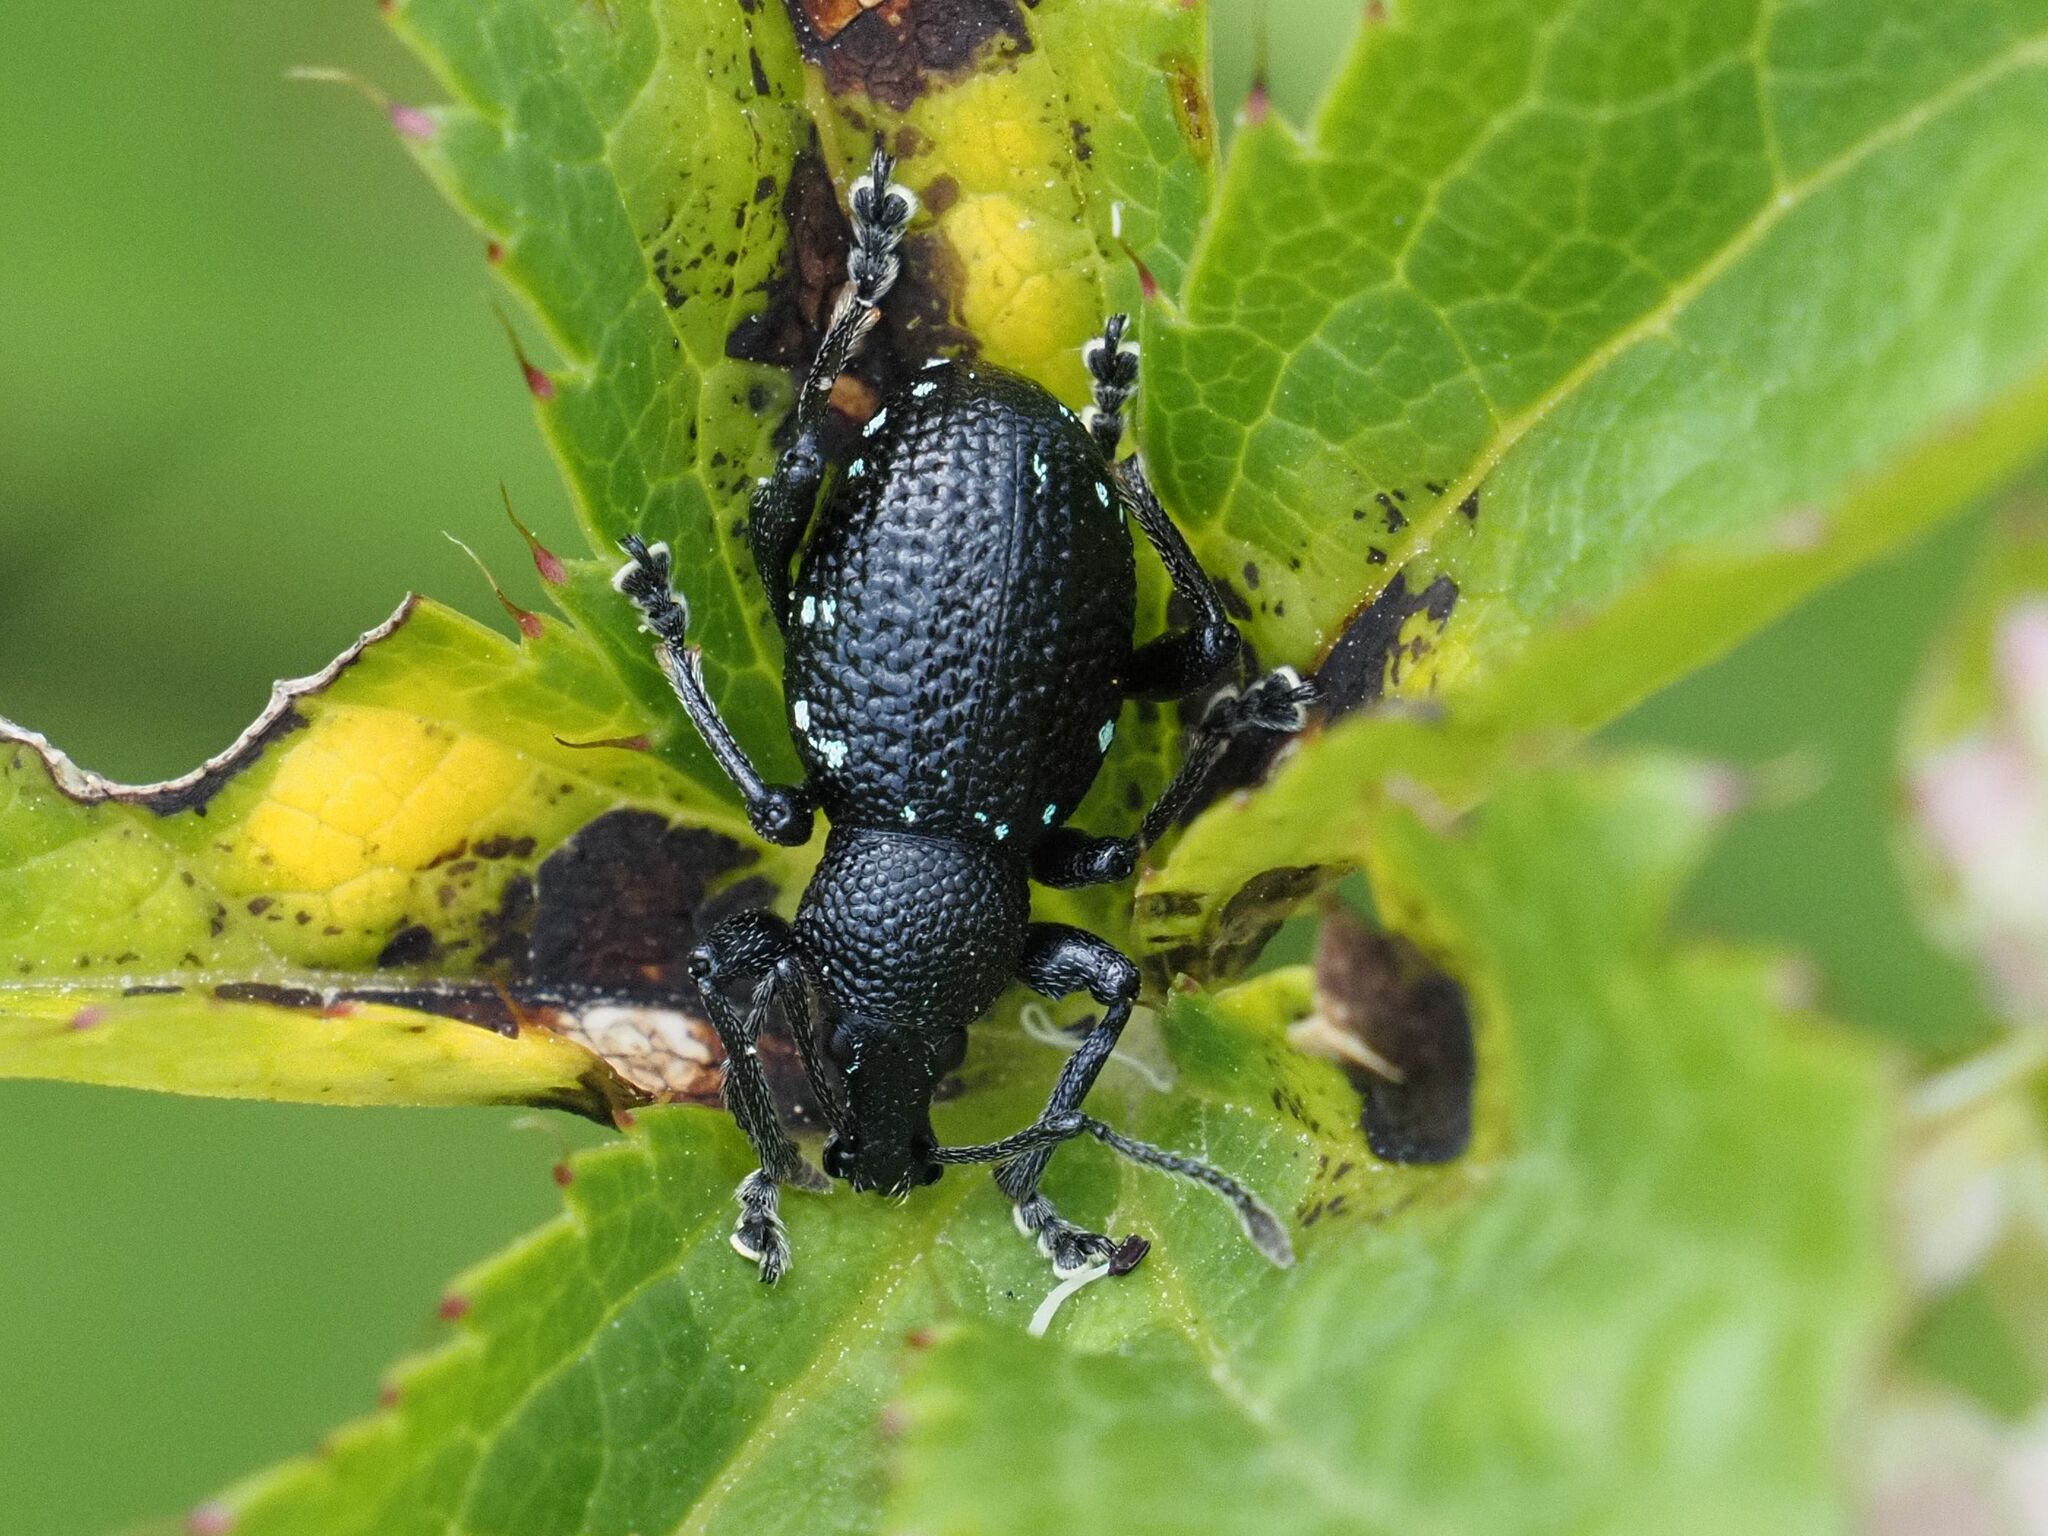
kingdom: Animalia
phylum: Arthropoda
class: Insecta
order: Coleoptera
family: Curculionidae
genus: Otiorhynchus
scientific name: Otiorhynchus gemmatus
